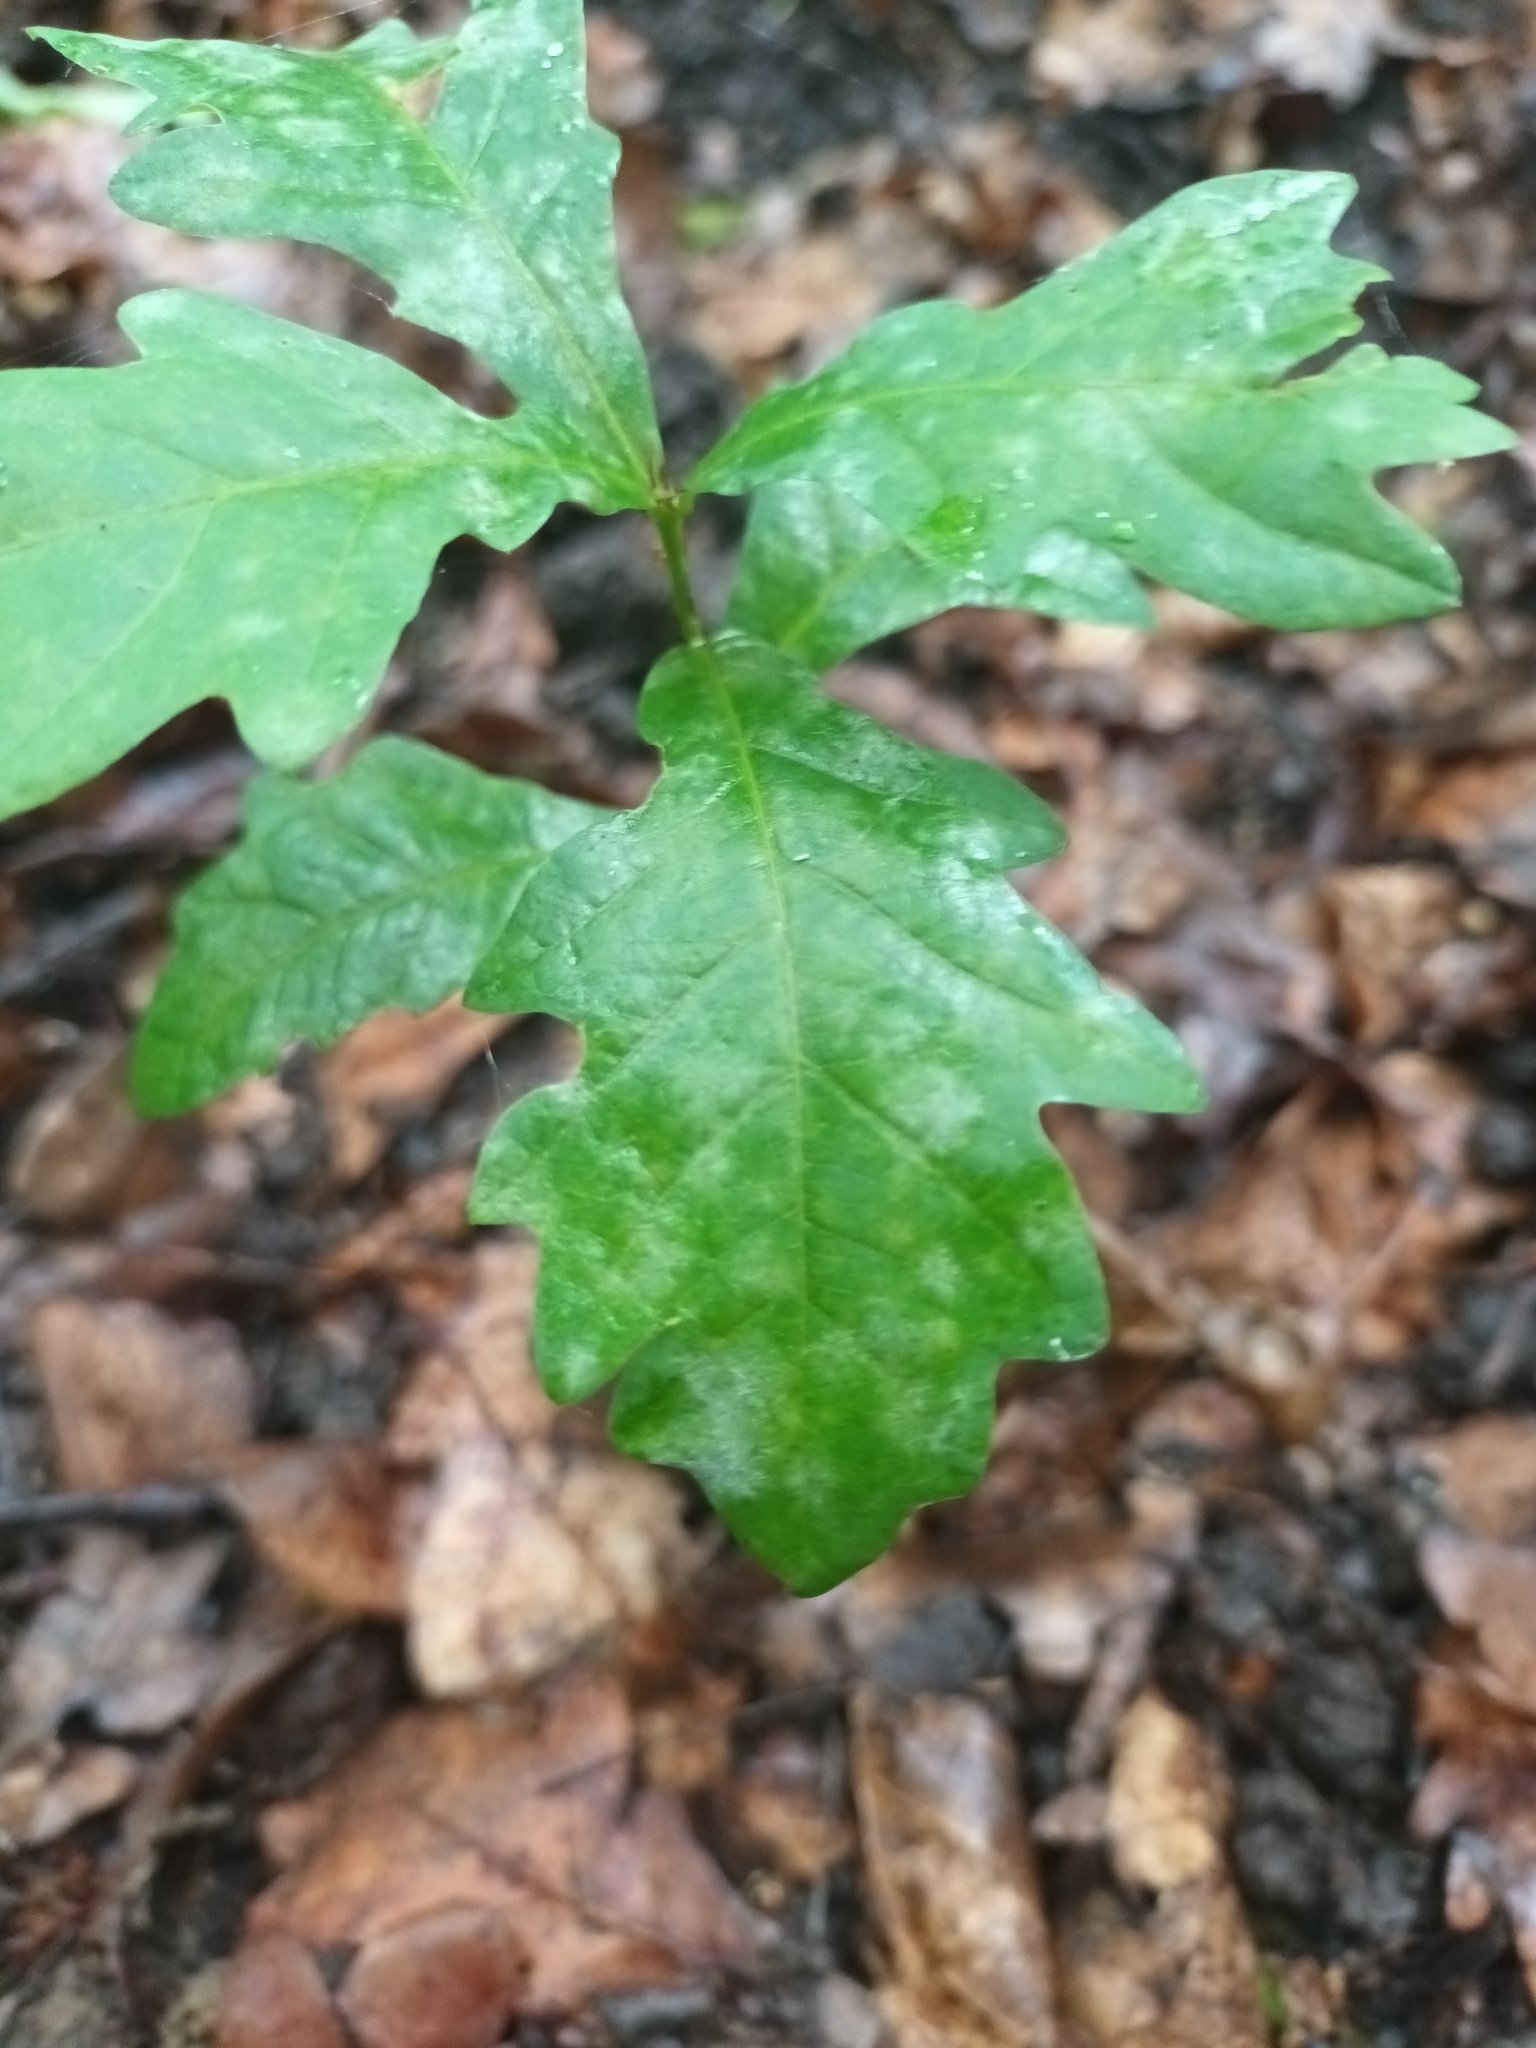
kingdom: Fungi
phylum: Ascomycota
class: Leotiomycetes
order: Helotiales
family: Erysiphaceae
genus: Erysiphe
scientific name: Erysiphe alphitoides
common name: Oak mildew
